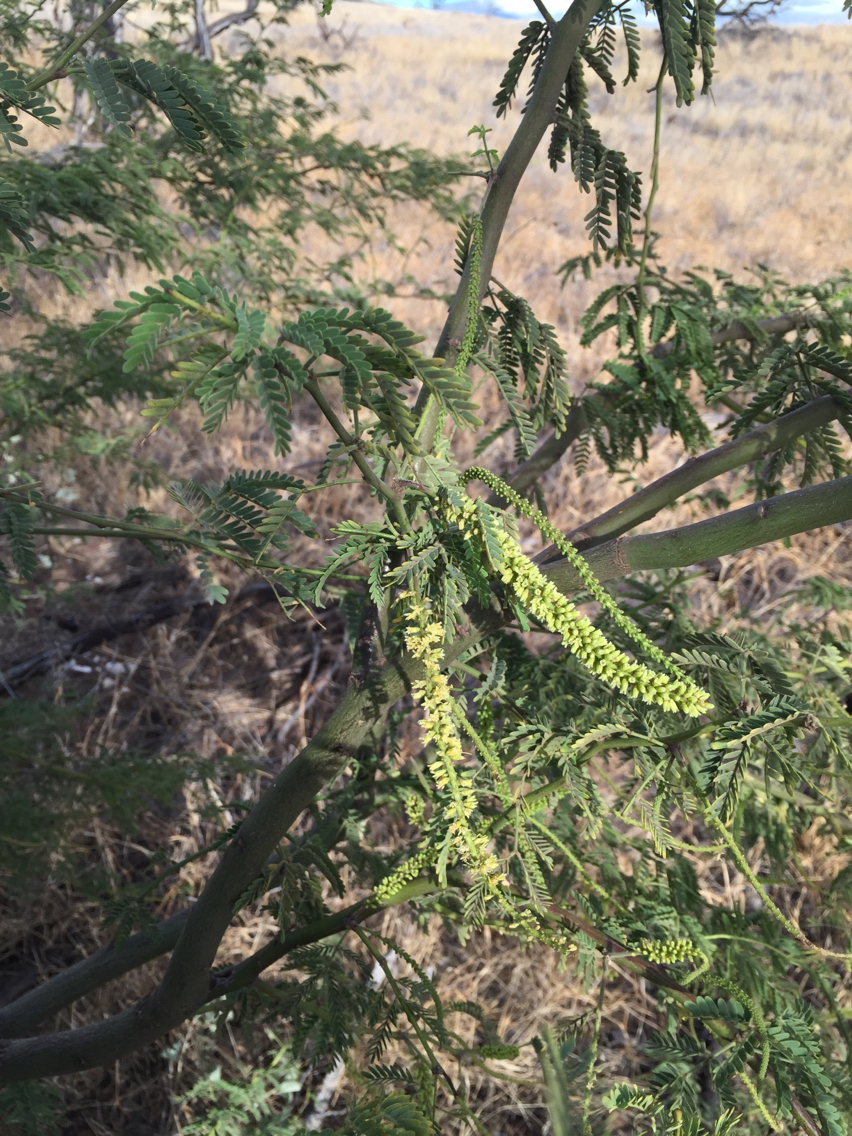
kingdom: Plantae
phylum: Tracheophyta
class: Magnoliopsida
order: Fabales
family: Fabaceae
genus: Prosopis
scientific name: Prosopis pallida
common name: Mesquite
